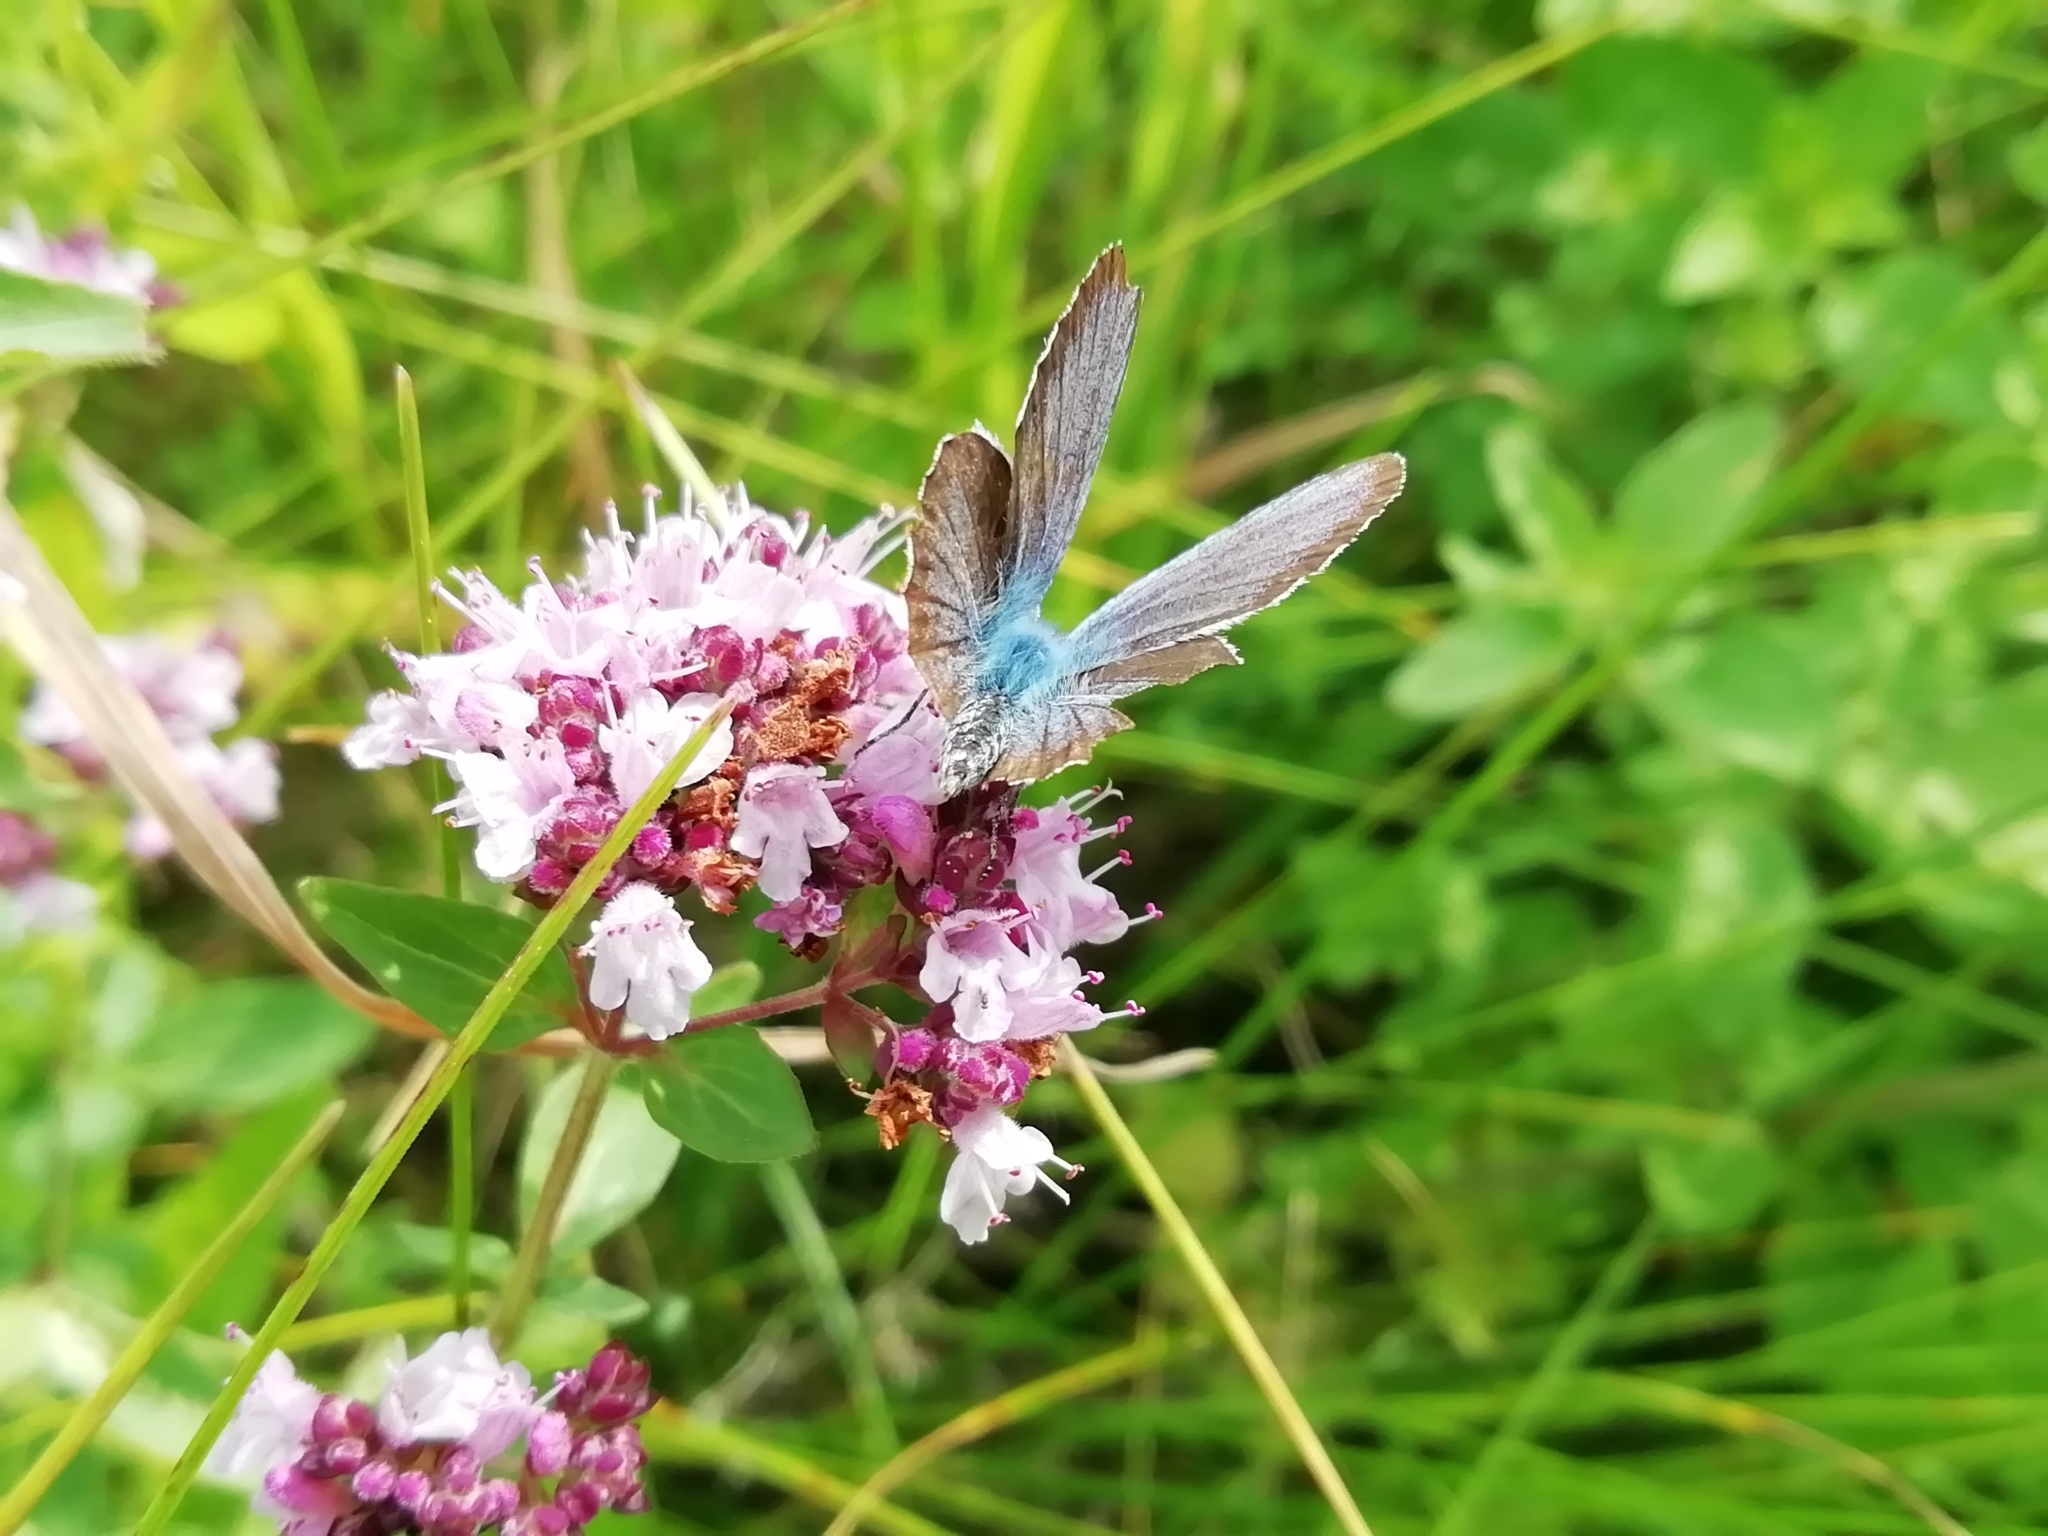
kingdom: Animalia
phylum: Arthropoda
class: Insecta
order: Lepidoptera
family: Lycaenidae
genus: Plebejus
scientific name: Plebejus argus
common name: Silver-studded blue
